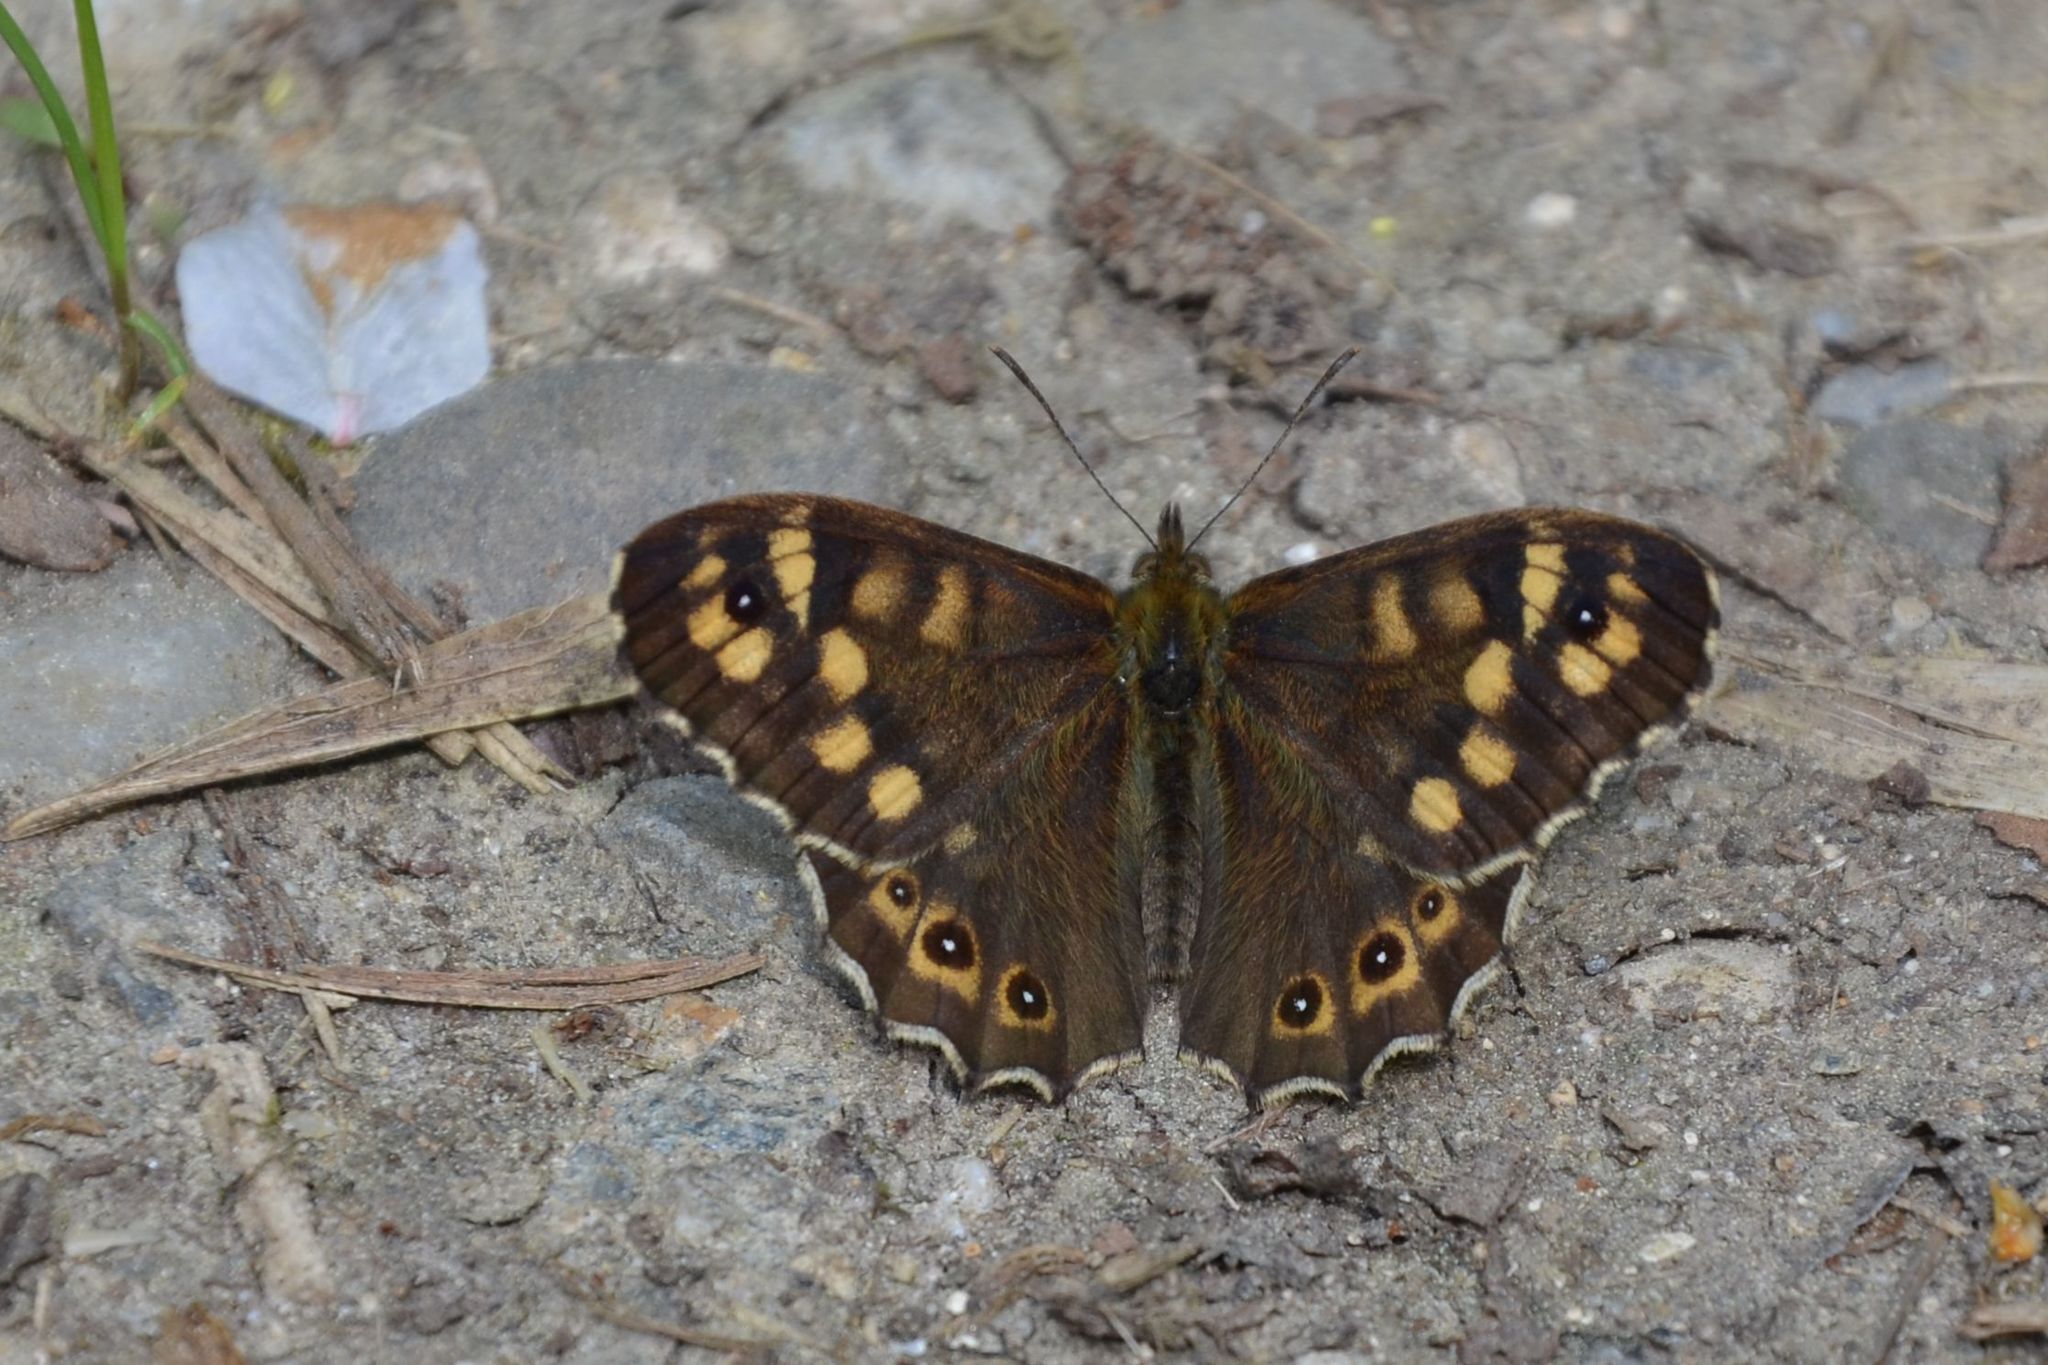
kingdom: Animalia
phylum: Arthropoda
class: Insecta
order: Lepidoptera
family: Nymphalidae
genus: Pararge
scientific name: Pararge aegeria
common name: Speckled wood
